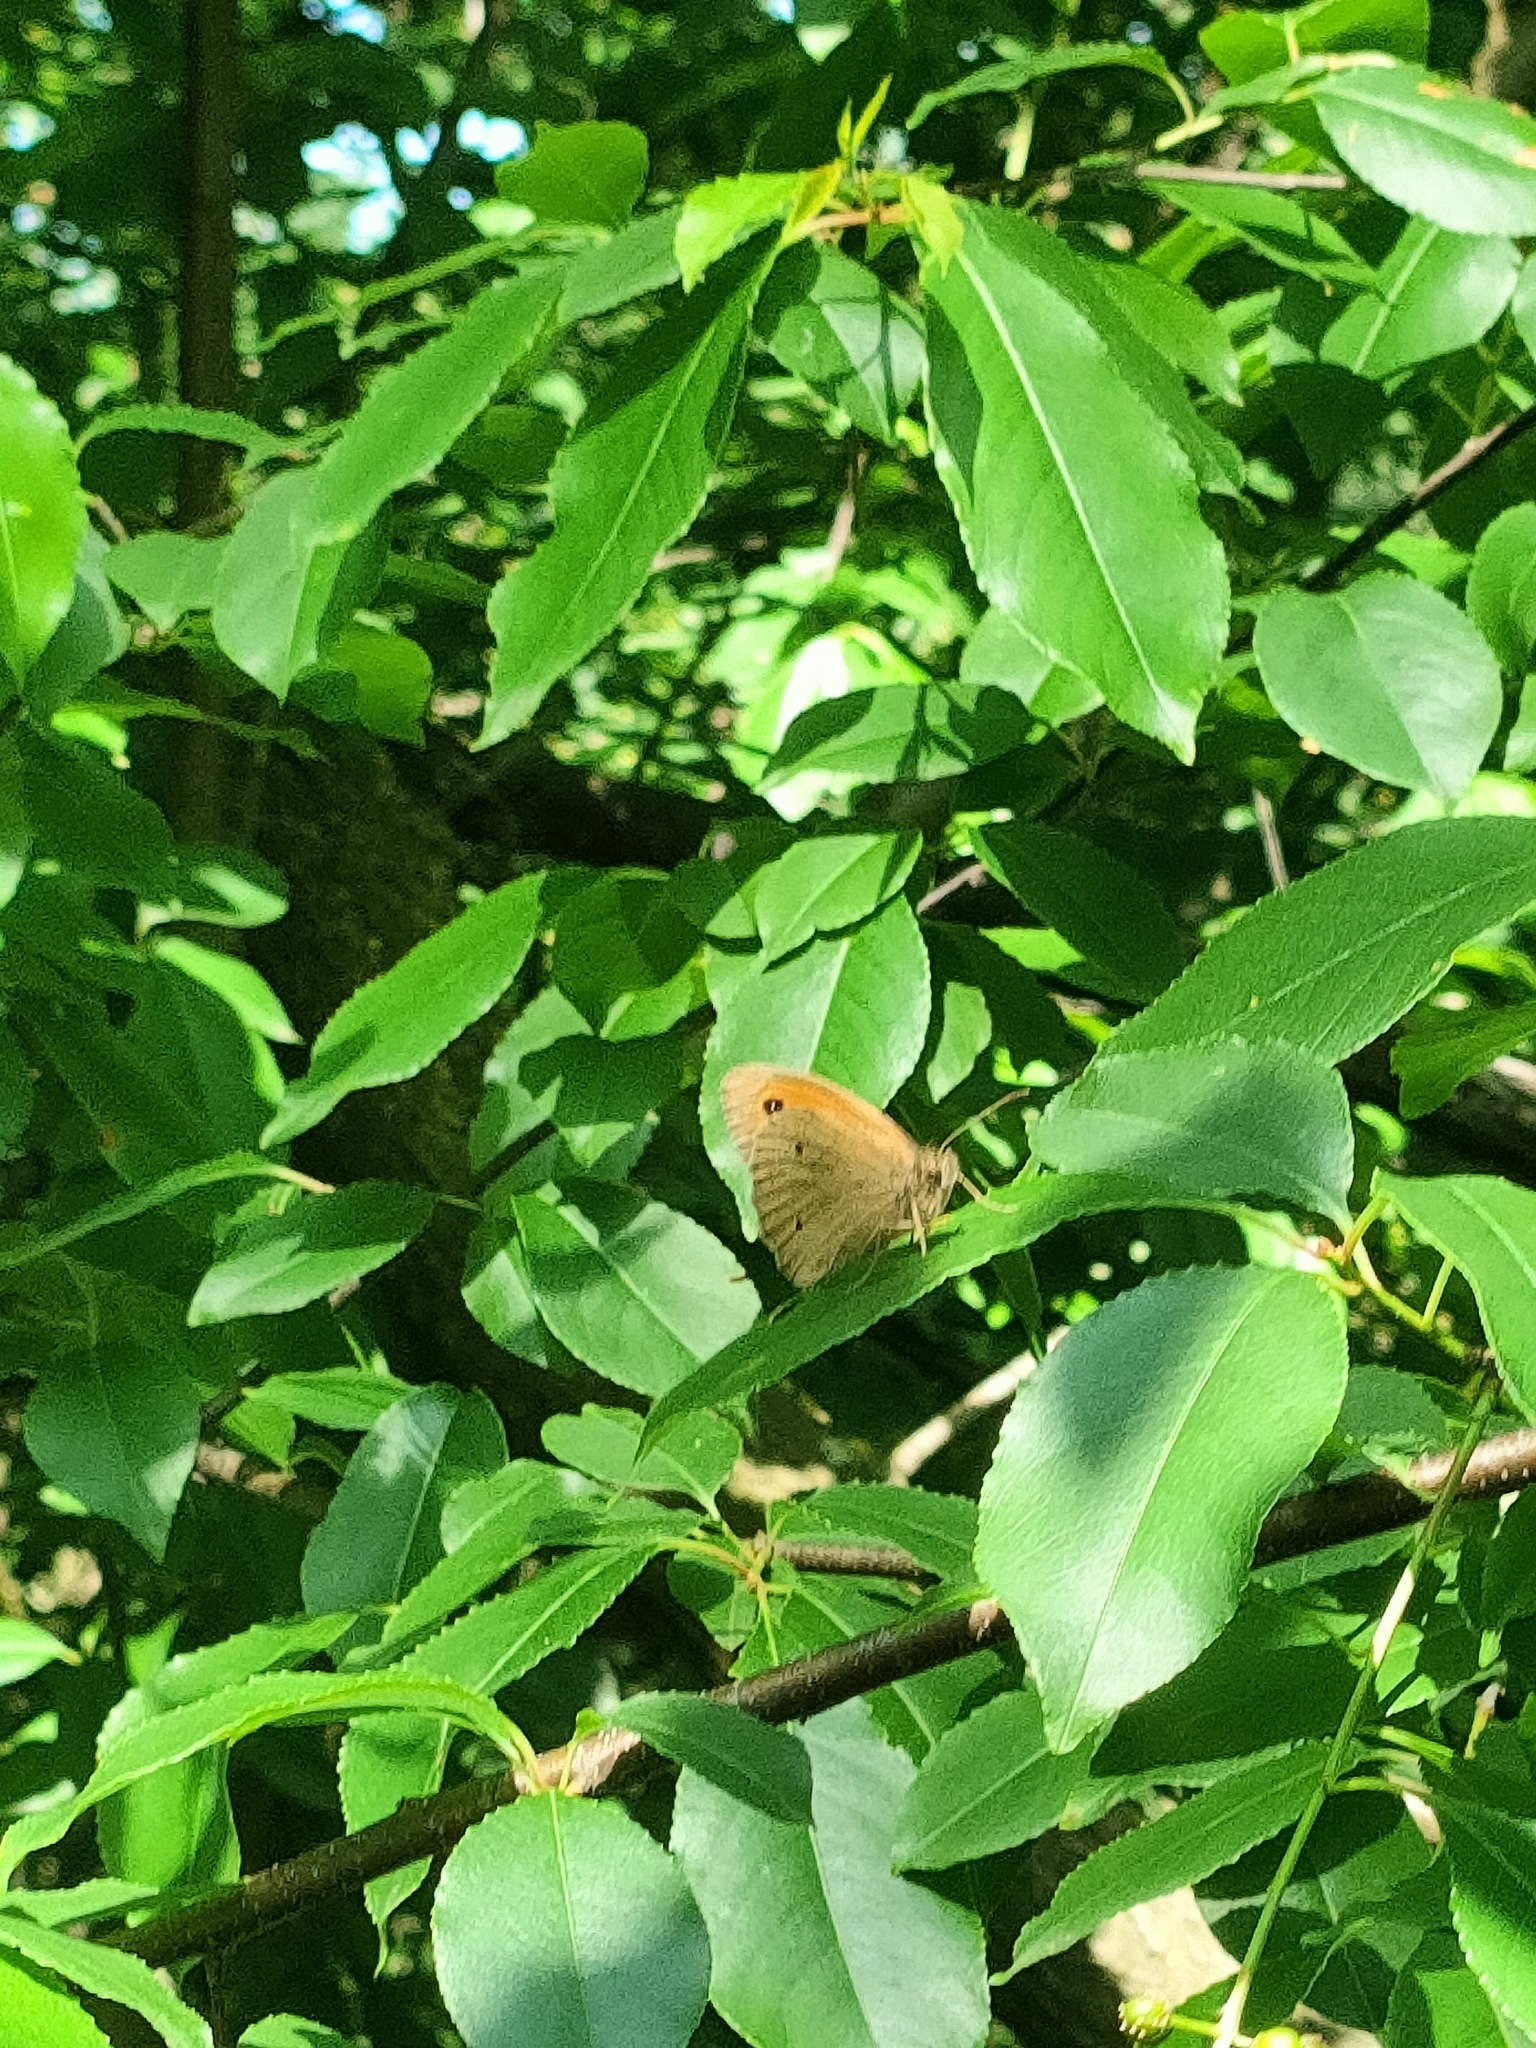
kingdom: Animalia
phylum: Arthropoda
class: Insecta
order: Lepidoptera
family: Nymphalidae
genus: Maniola
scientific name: Maniola jurtina
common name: Meadow brown
